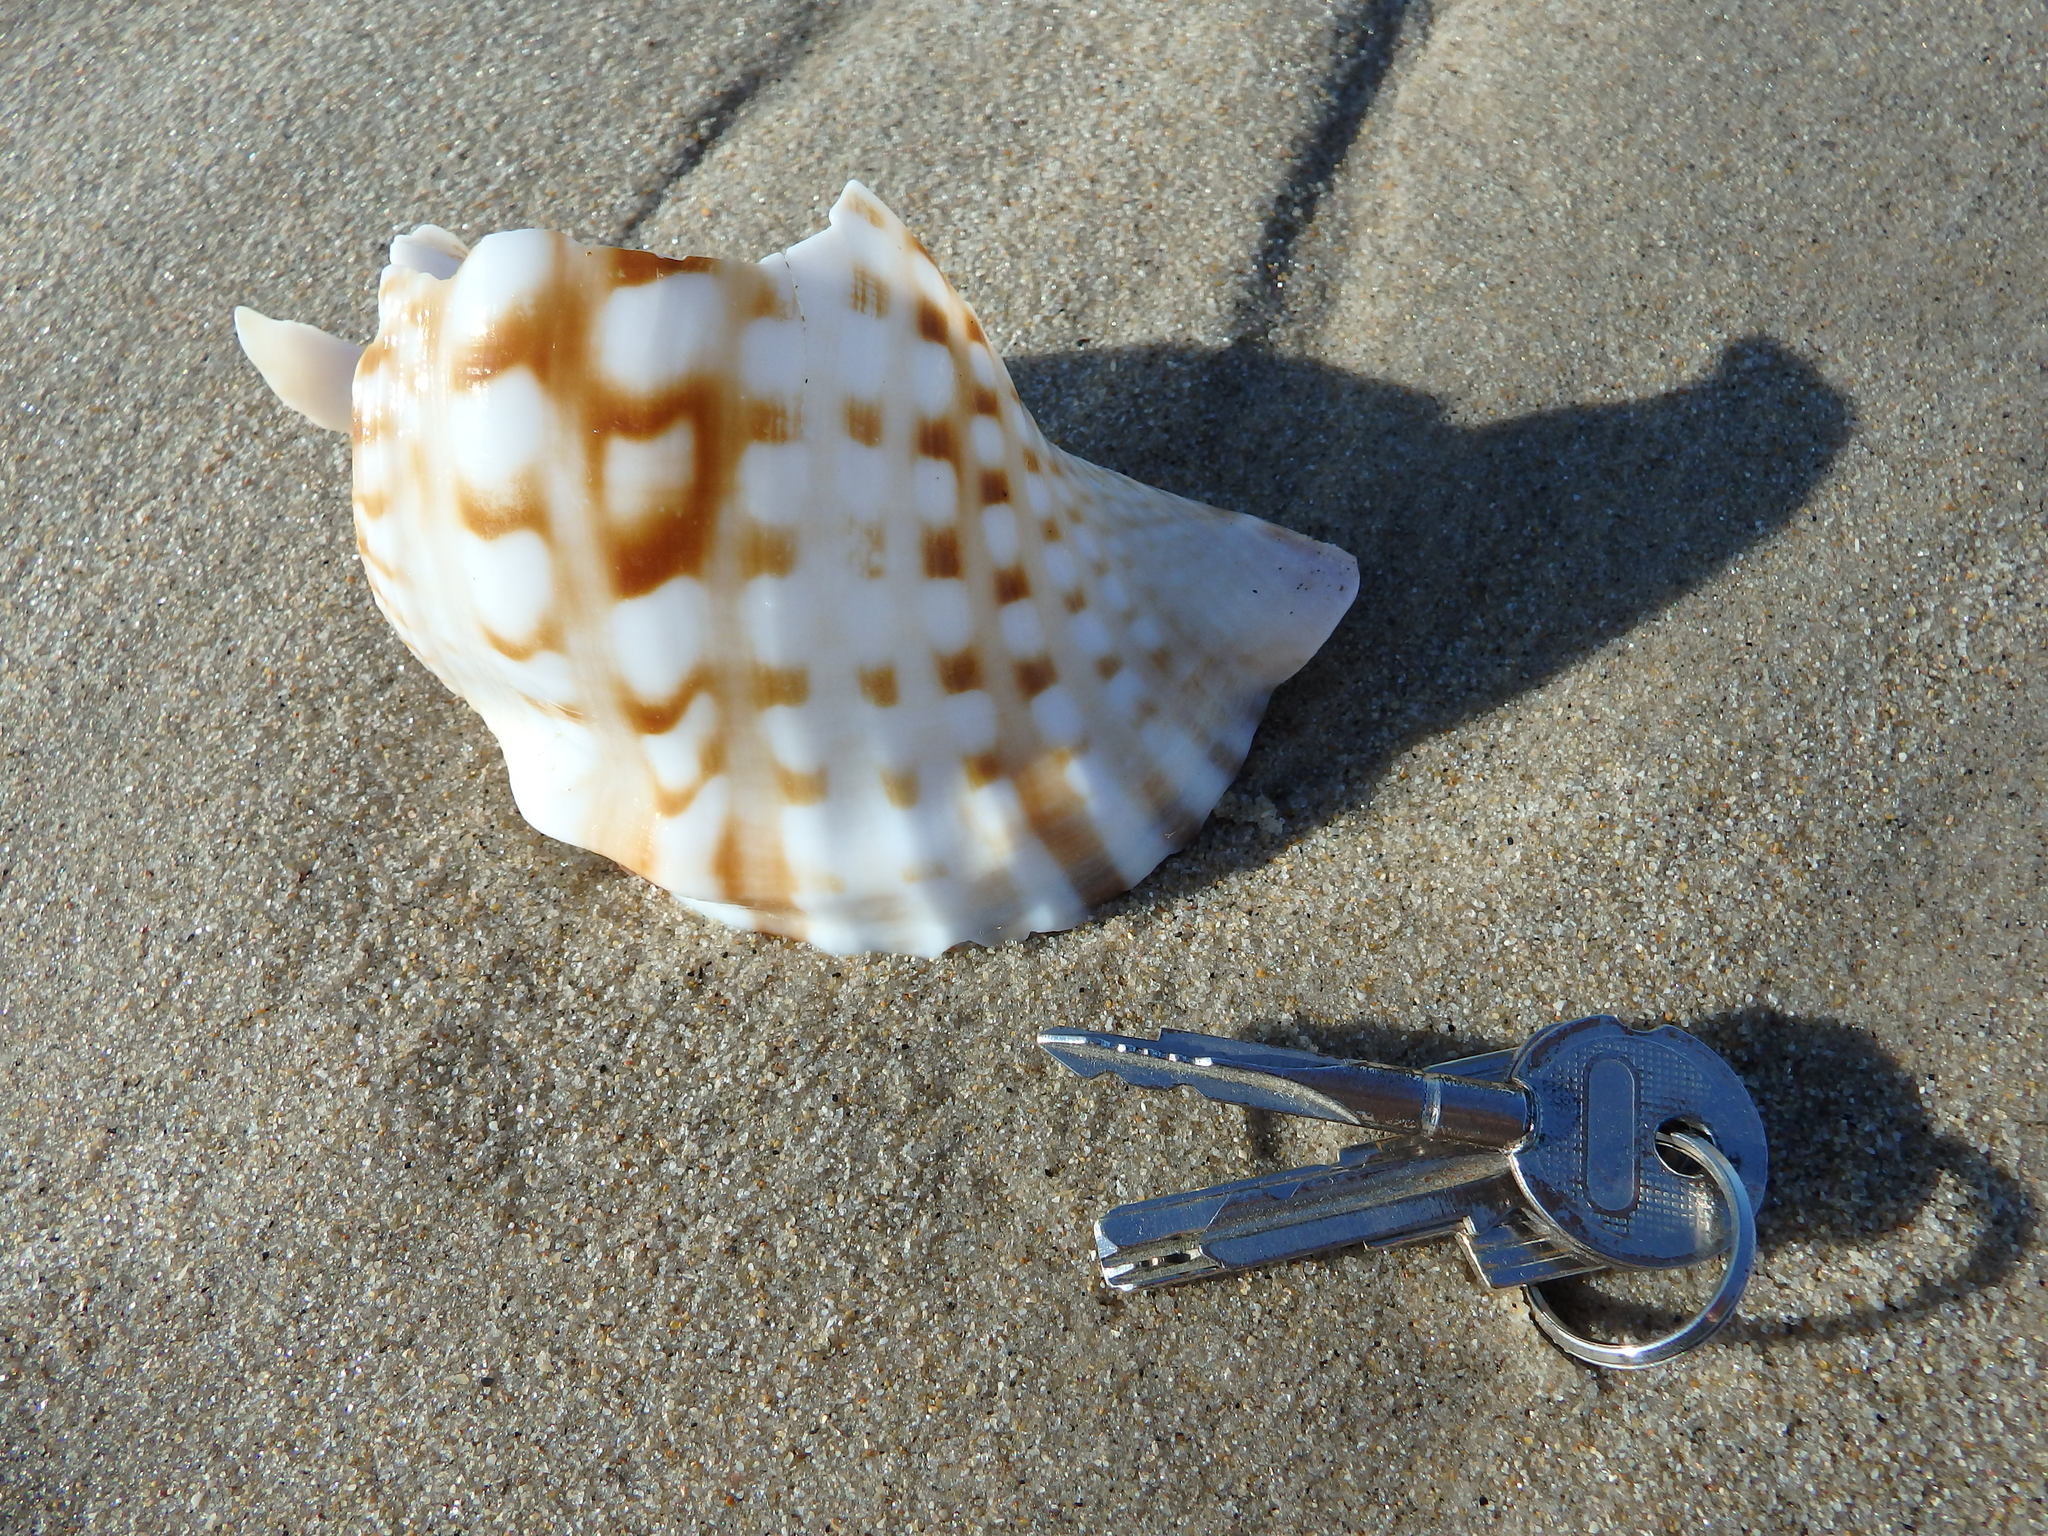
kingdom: Animalia
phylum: Mollusca
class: Gastropoda
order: Littorinimorpha
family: Charoniidae
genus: Charonia
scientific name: Charonia lampas
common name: Knobbed triton
